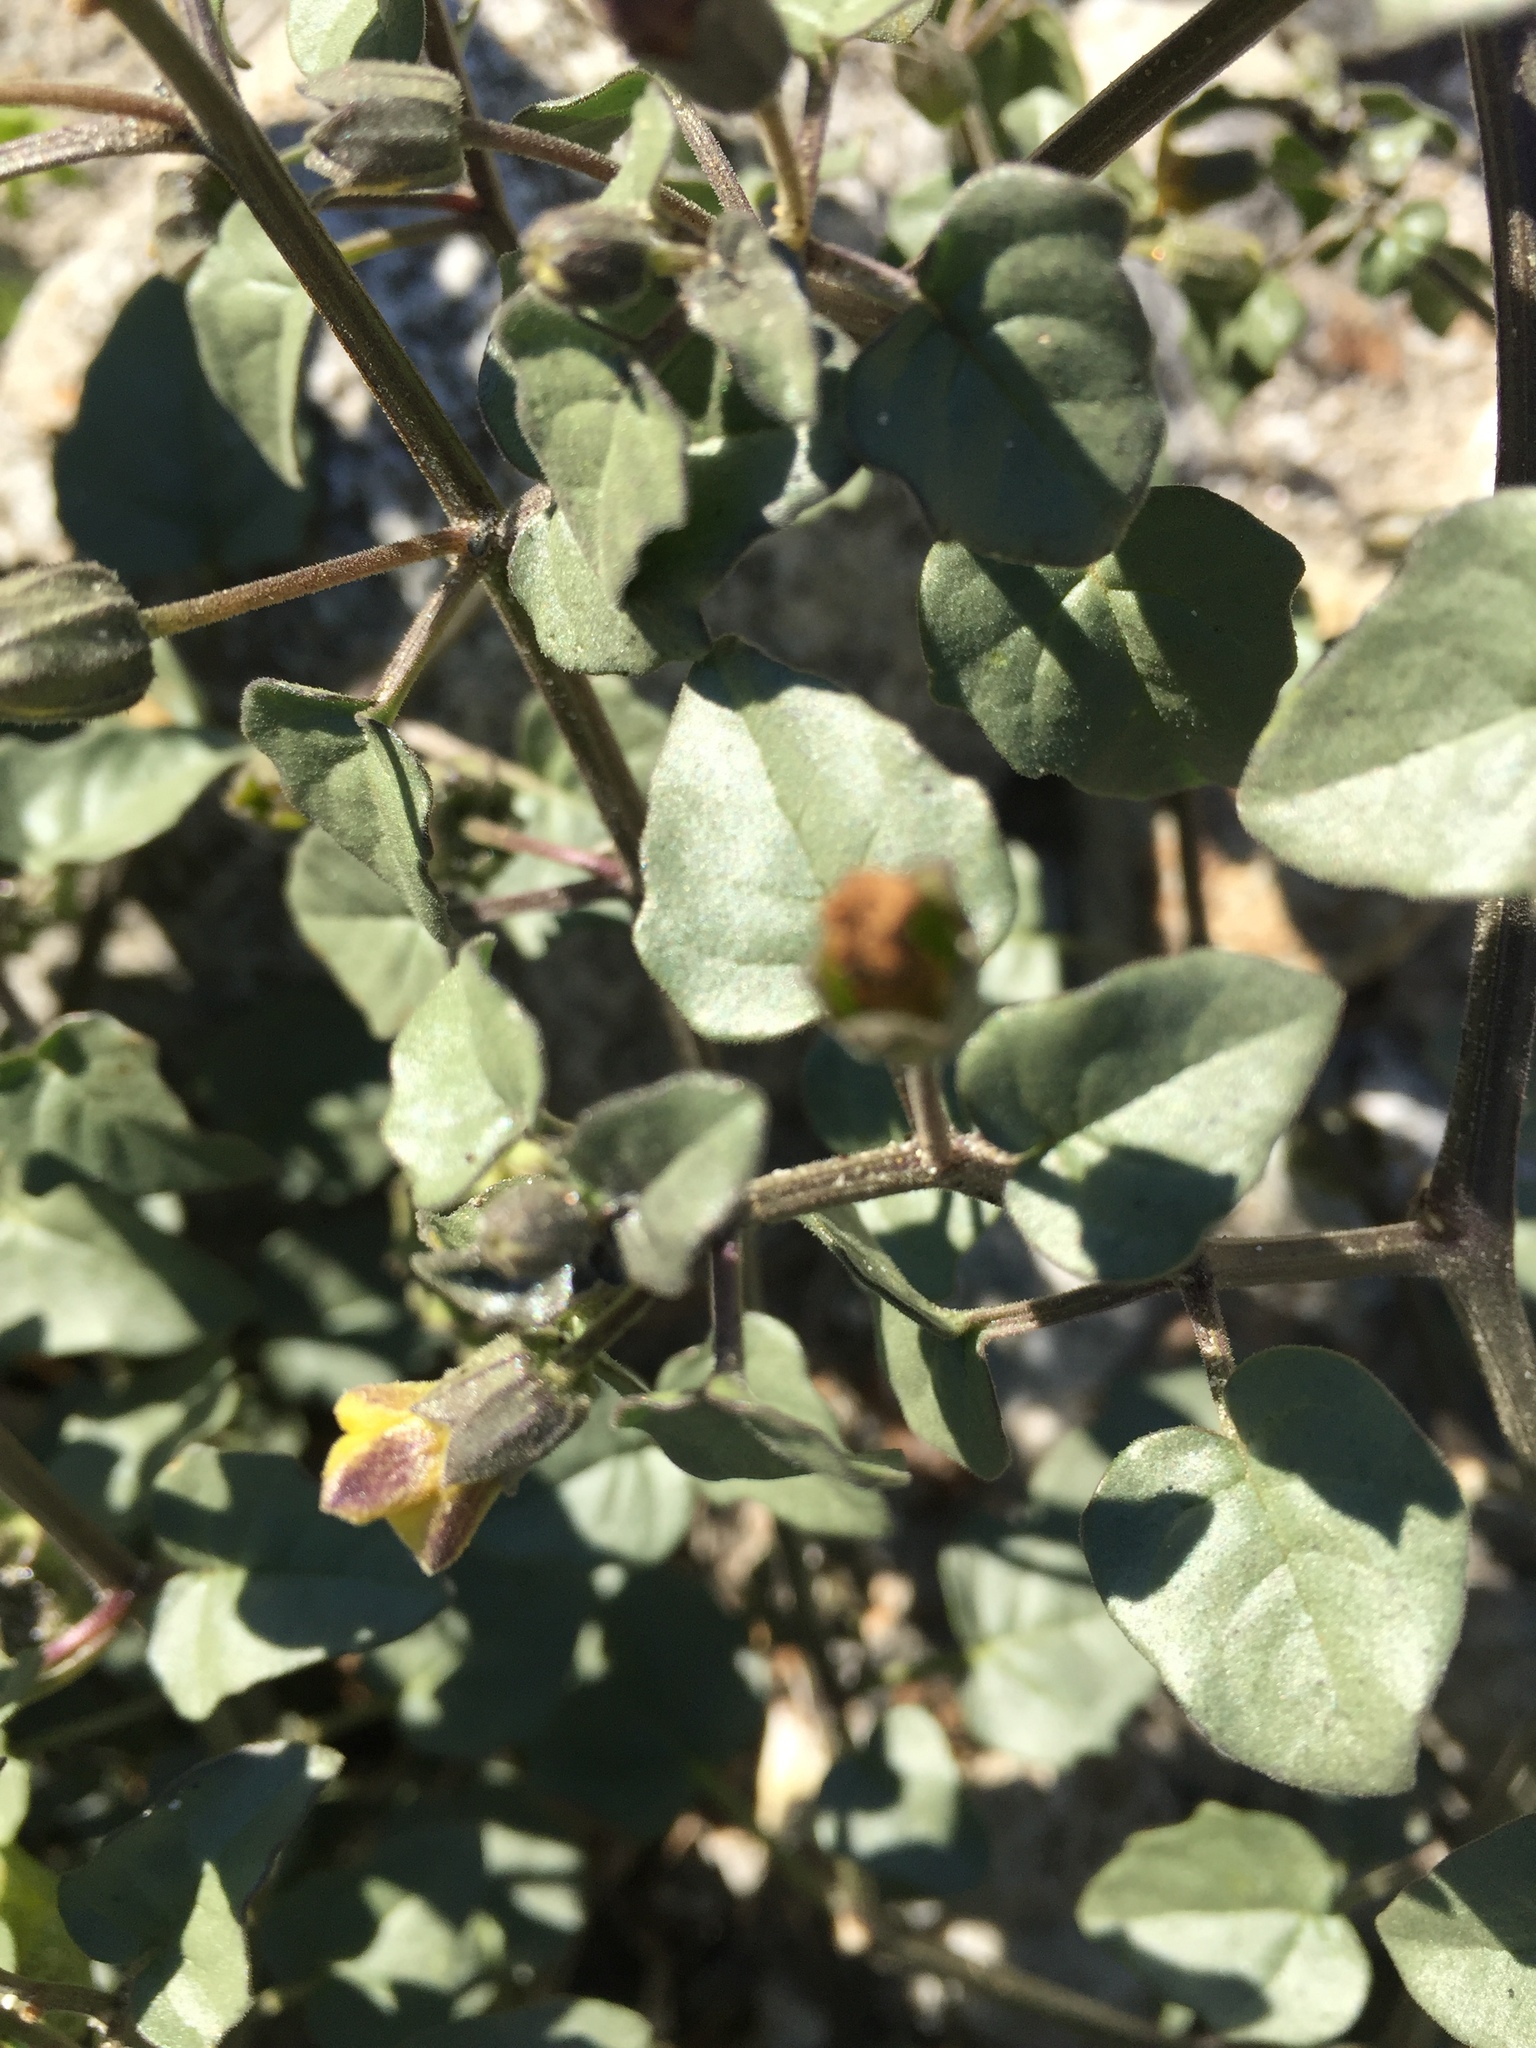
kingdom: Plantae
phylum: Tracheophyta
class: Magnoliopsida
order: Solanales
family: Solanaceae
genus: Physalis
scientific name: Physalis crassifolia
